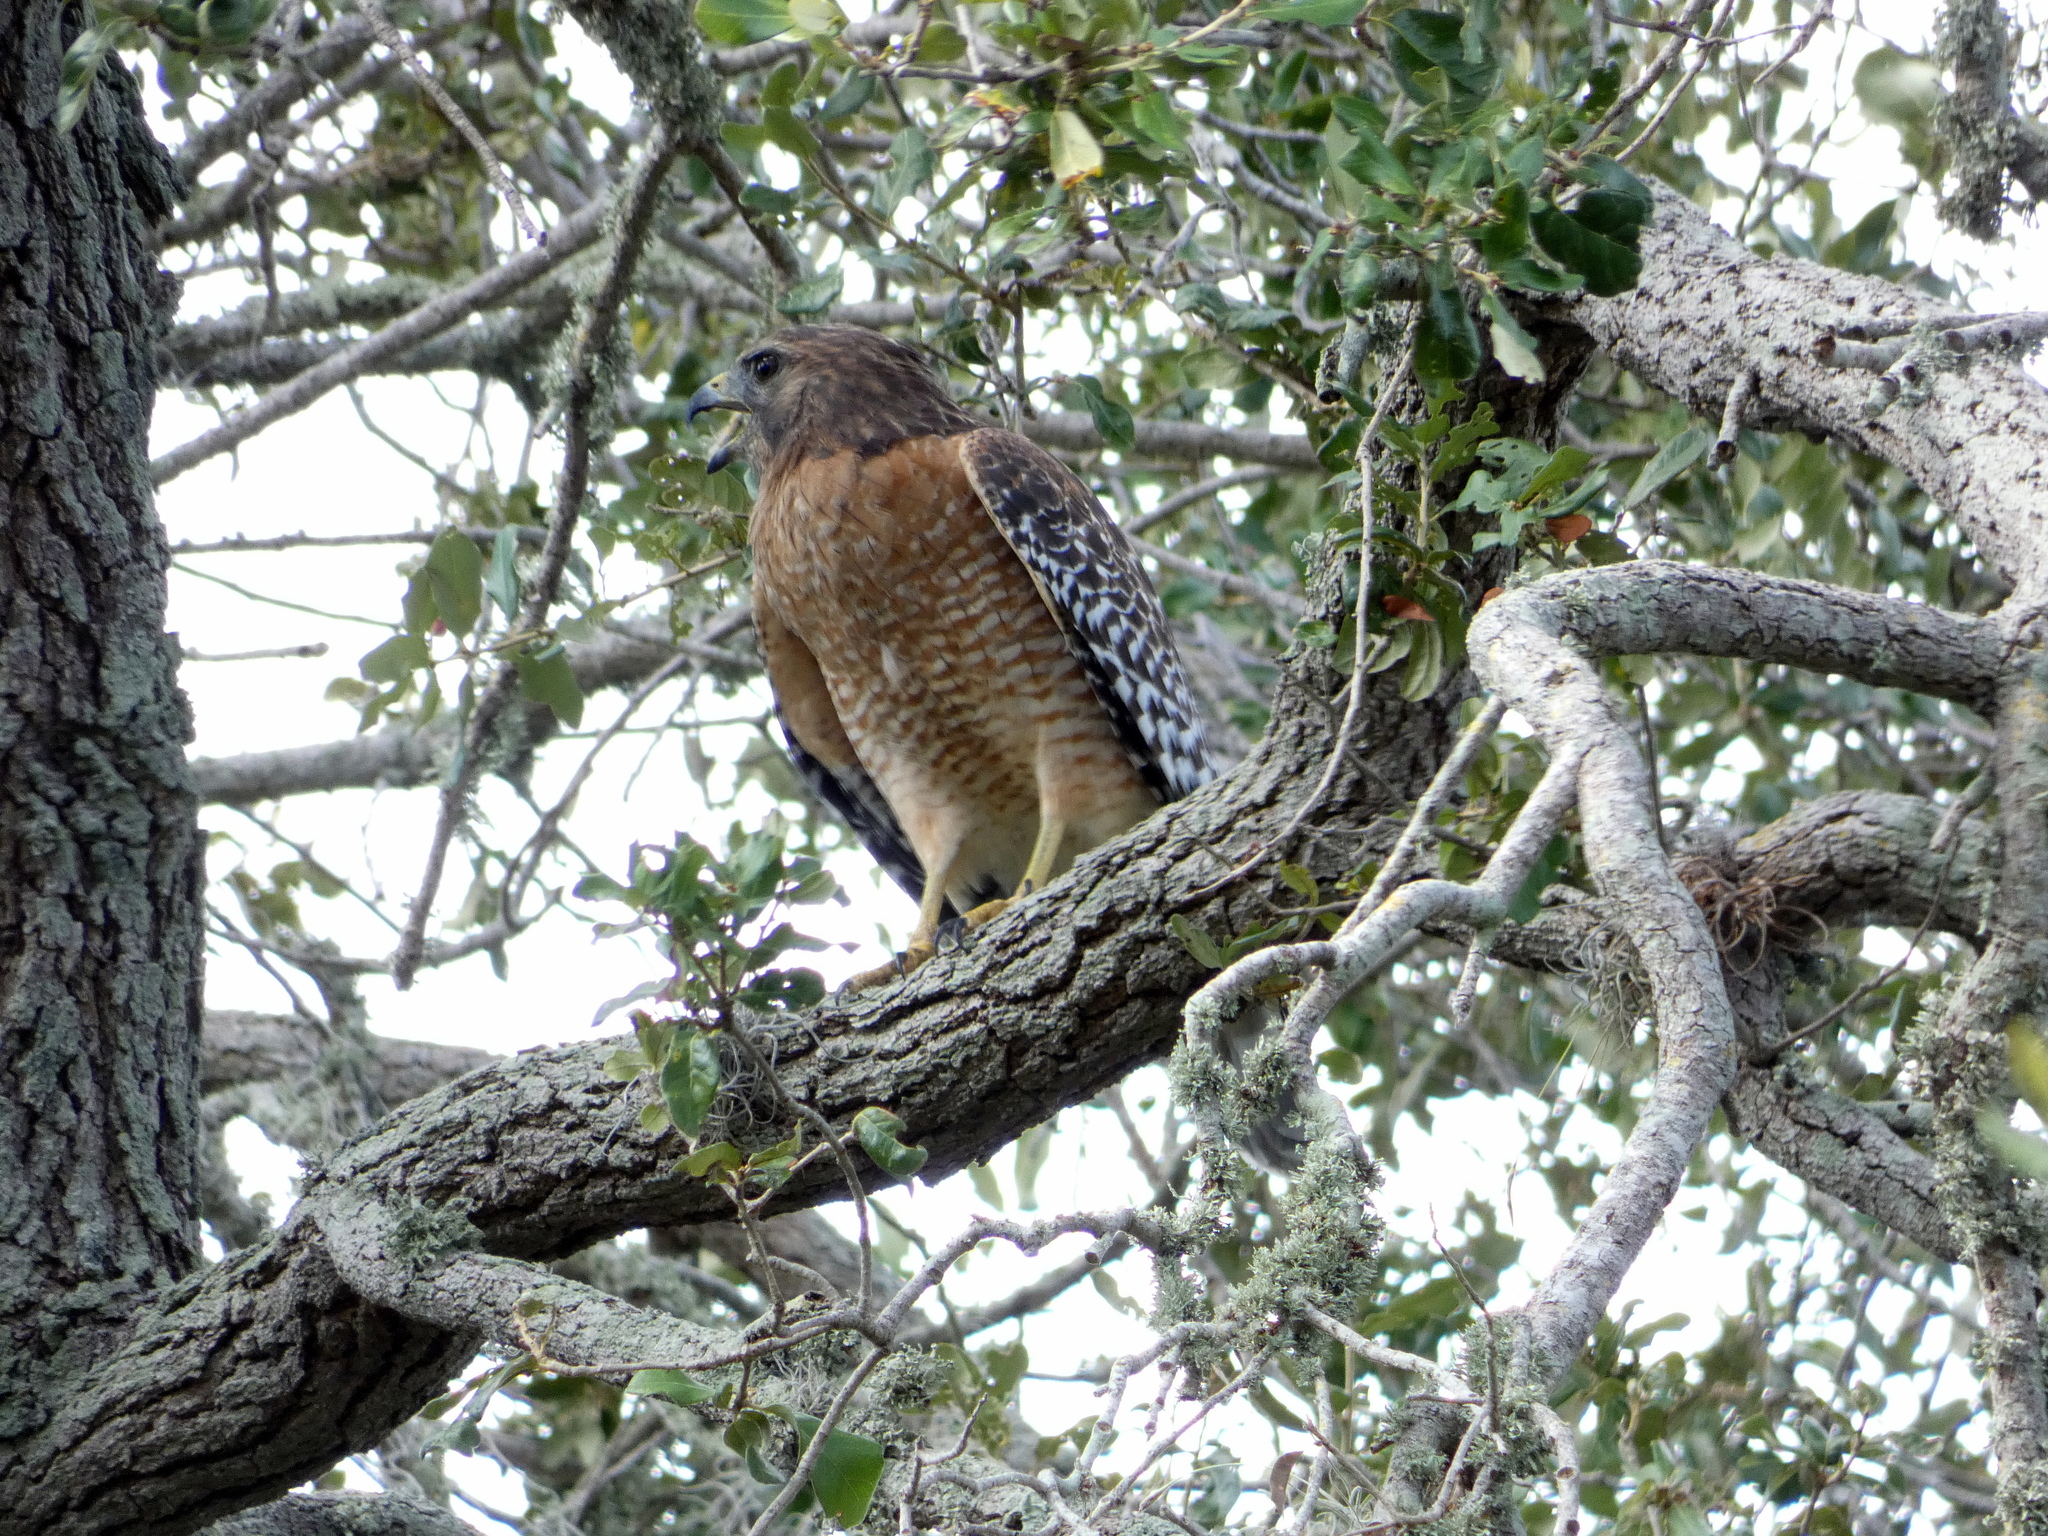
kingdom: Animalia
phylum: Chordata
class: Aves
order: Accipitriformes
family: Accipitridae
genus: Buteo
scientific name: Buteo lineatus
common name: Red-shouldered hawk
